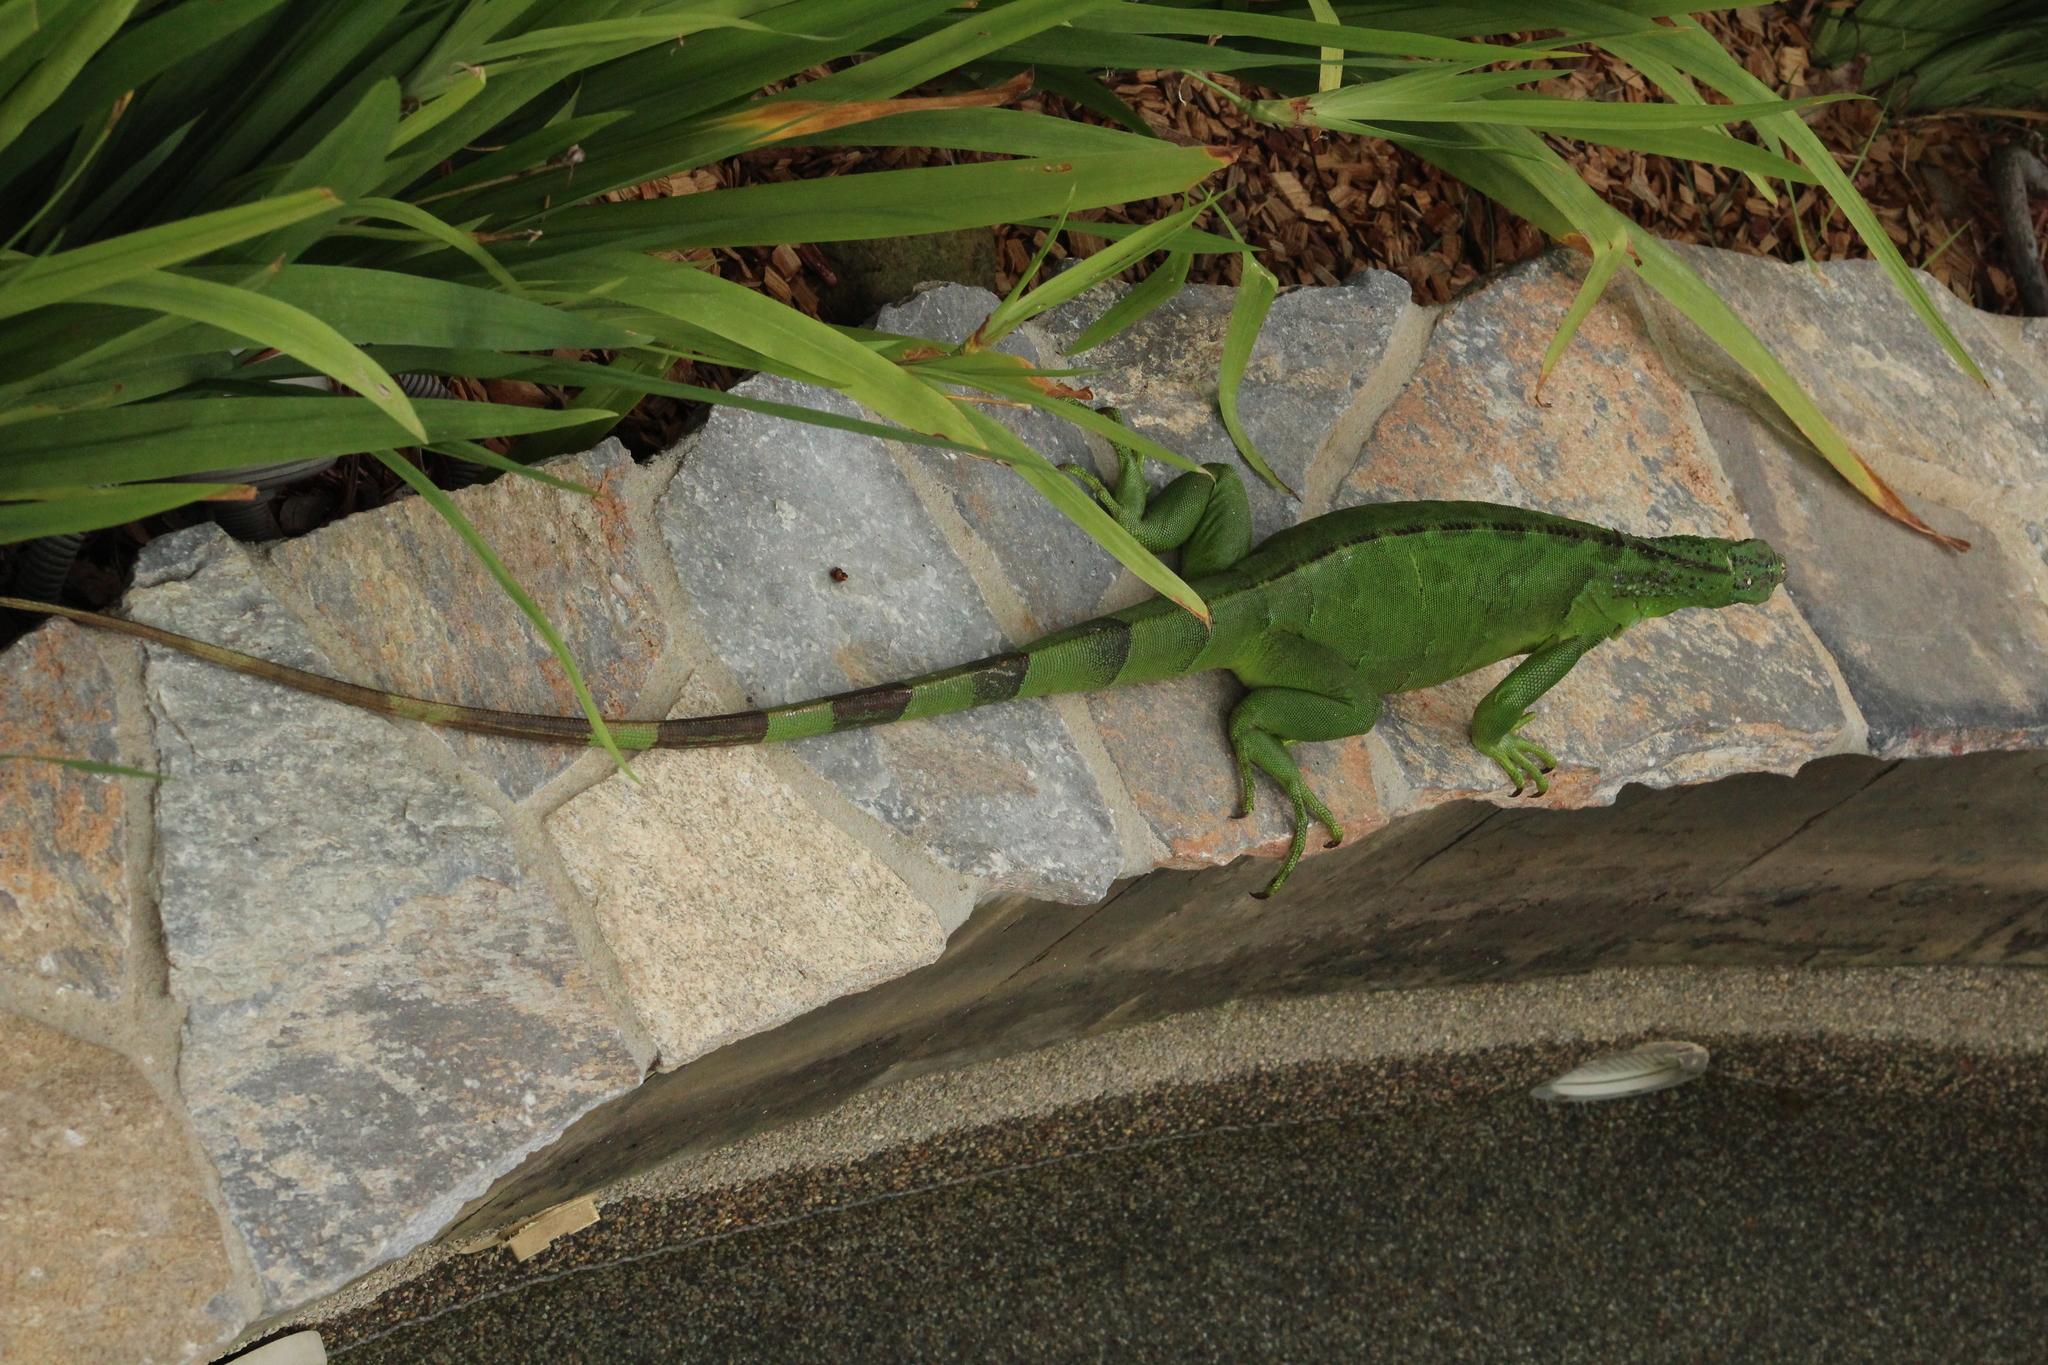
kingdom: Animalia
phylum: Chordata
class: Squamata
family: Iguanidae
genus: Iguana
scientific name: Iguana iguana
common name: Green iguana
